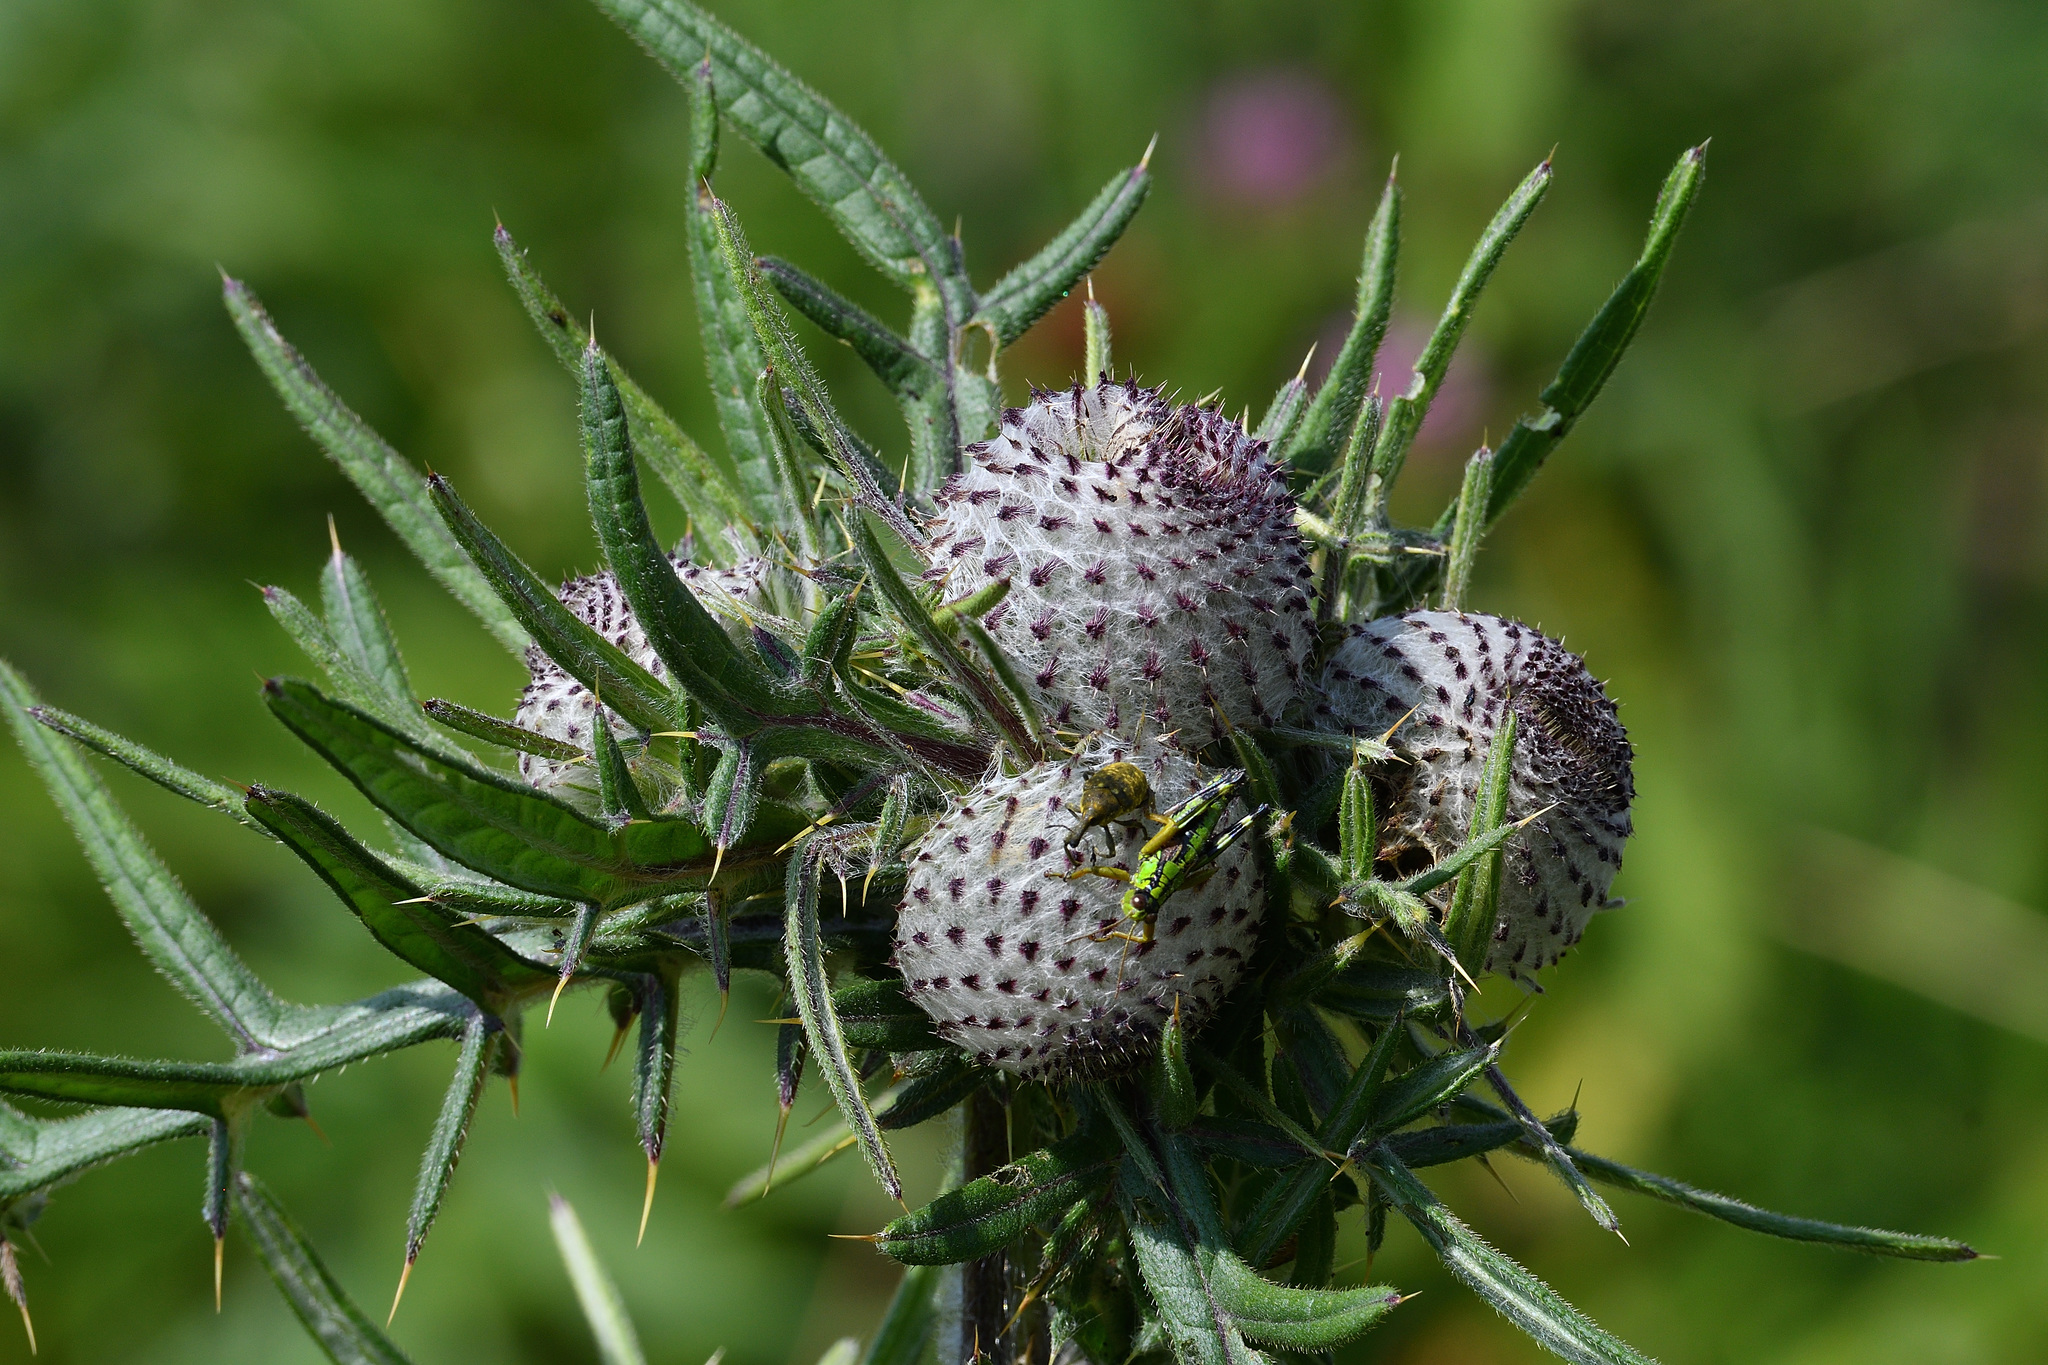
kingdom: Plantae
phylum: Tracheophyta
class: Magnoliopsida
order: Asterales
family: Asteraceae
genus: Lophiolepis
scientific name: Lophiolepis eriophora
